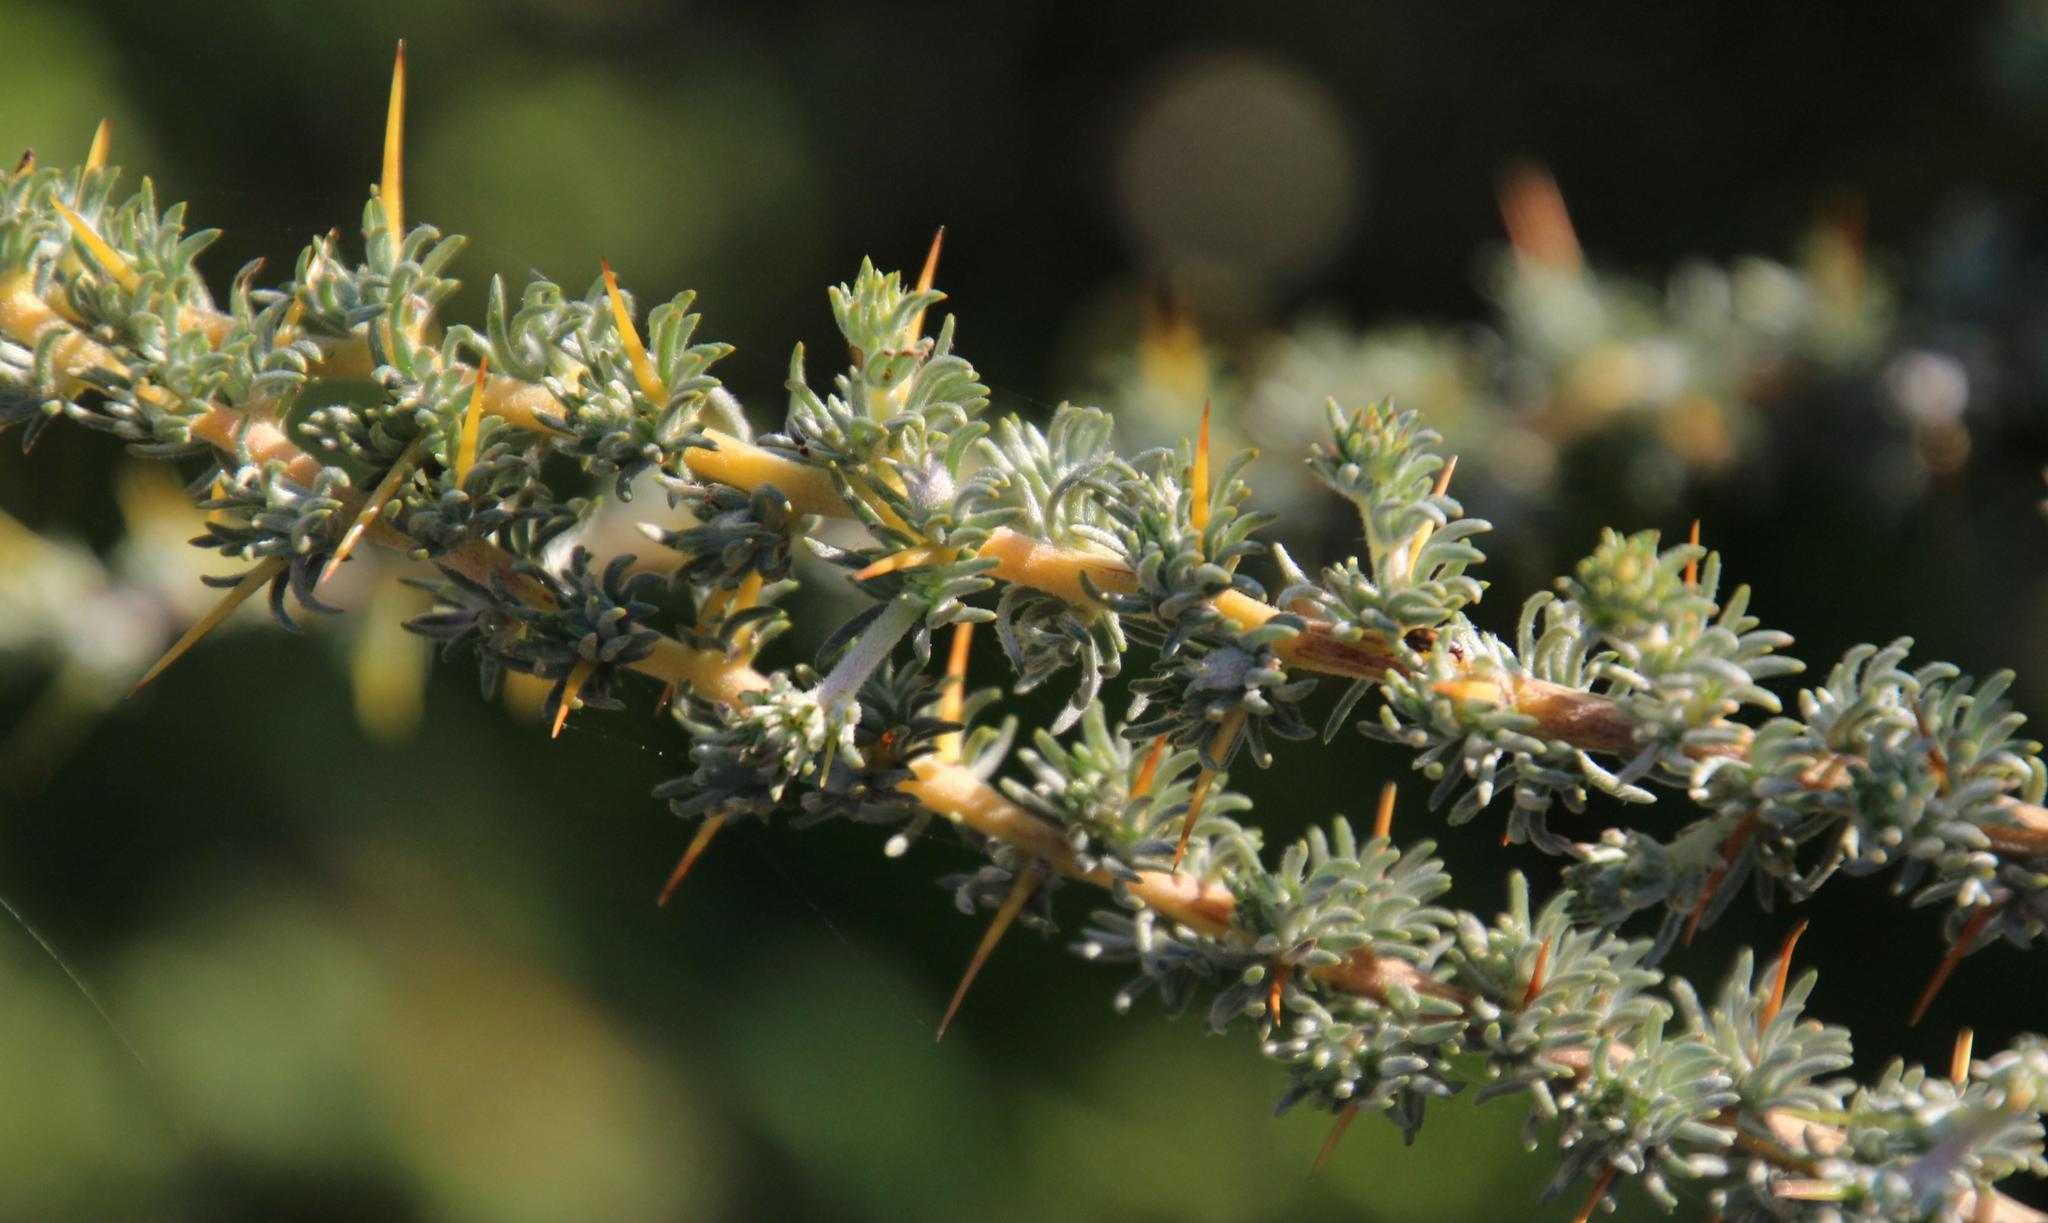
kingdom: Plantae
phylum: Tracheophyta
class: Magnoliopsida
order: Fabales
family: Fabaceae
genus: Aspalathus
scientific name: Aspalathus acanthophylla
